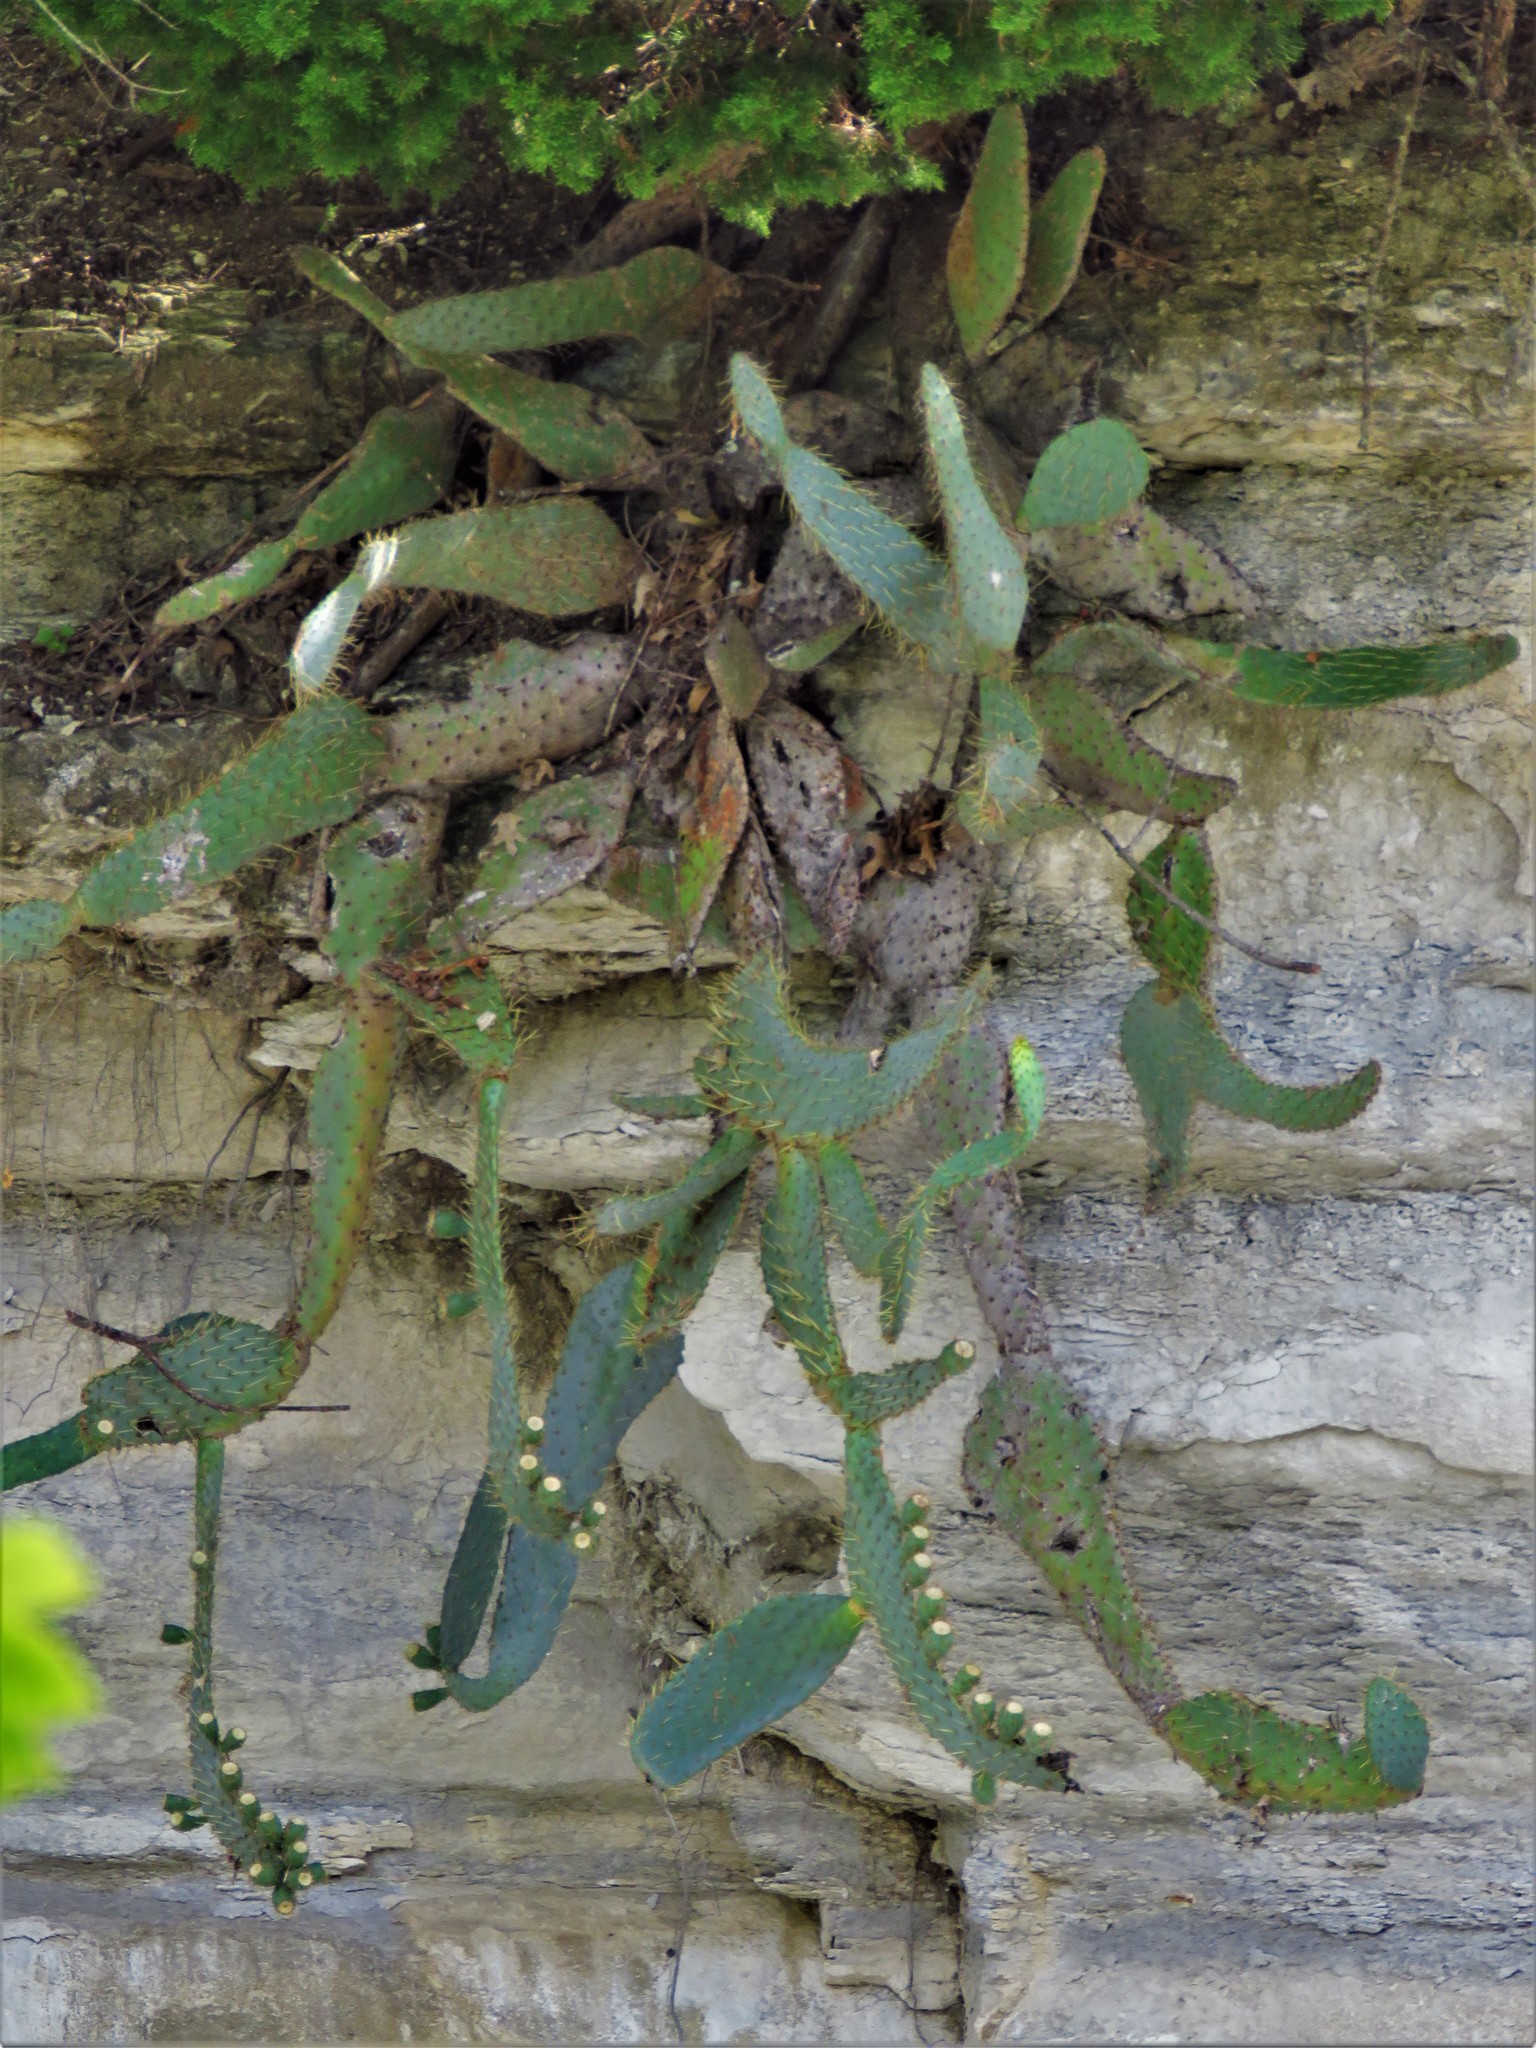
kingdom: Plantae
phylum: Tracheophyta
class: Magnoliopsida
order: Caryophyllales
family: Cactaceae
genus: Opuntia
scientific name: Opuntia engelmannii
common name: Cactus-apple
